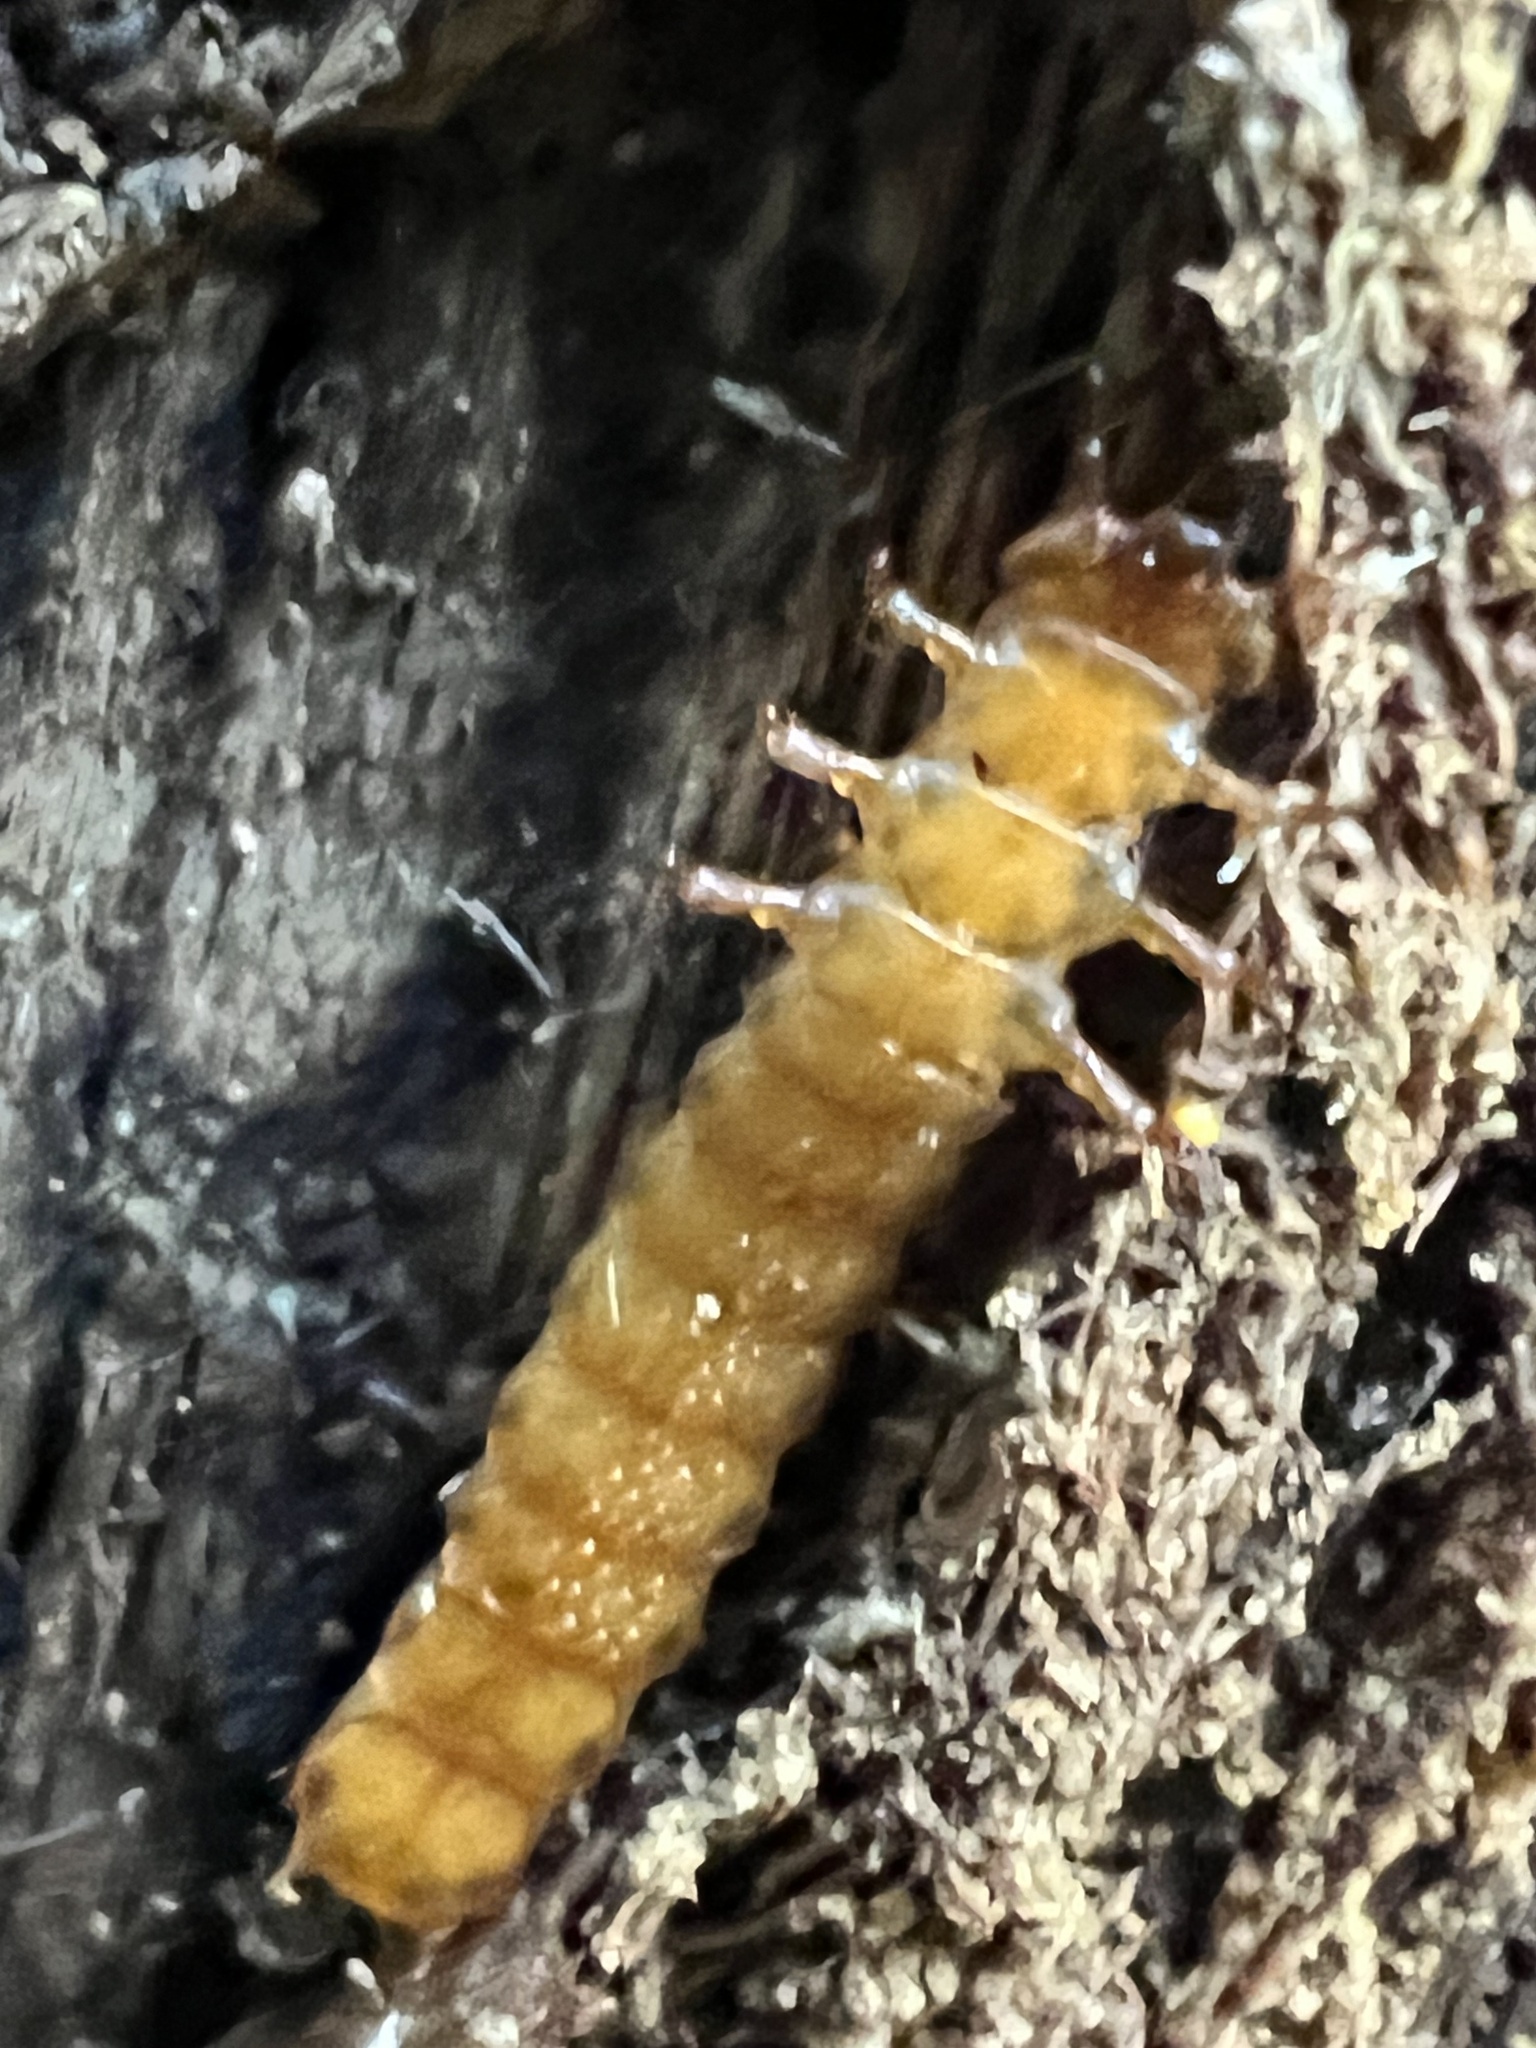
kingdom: Animalia
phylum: Arthropoda
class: Insecta
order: Coleoptera
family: Cucujidae
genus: Cucujus
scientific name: Cucujus clavipes
